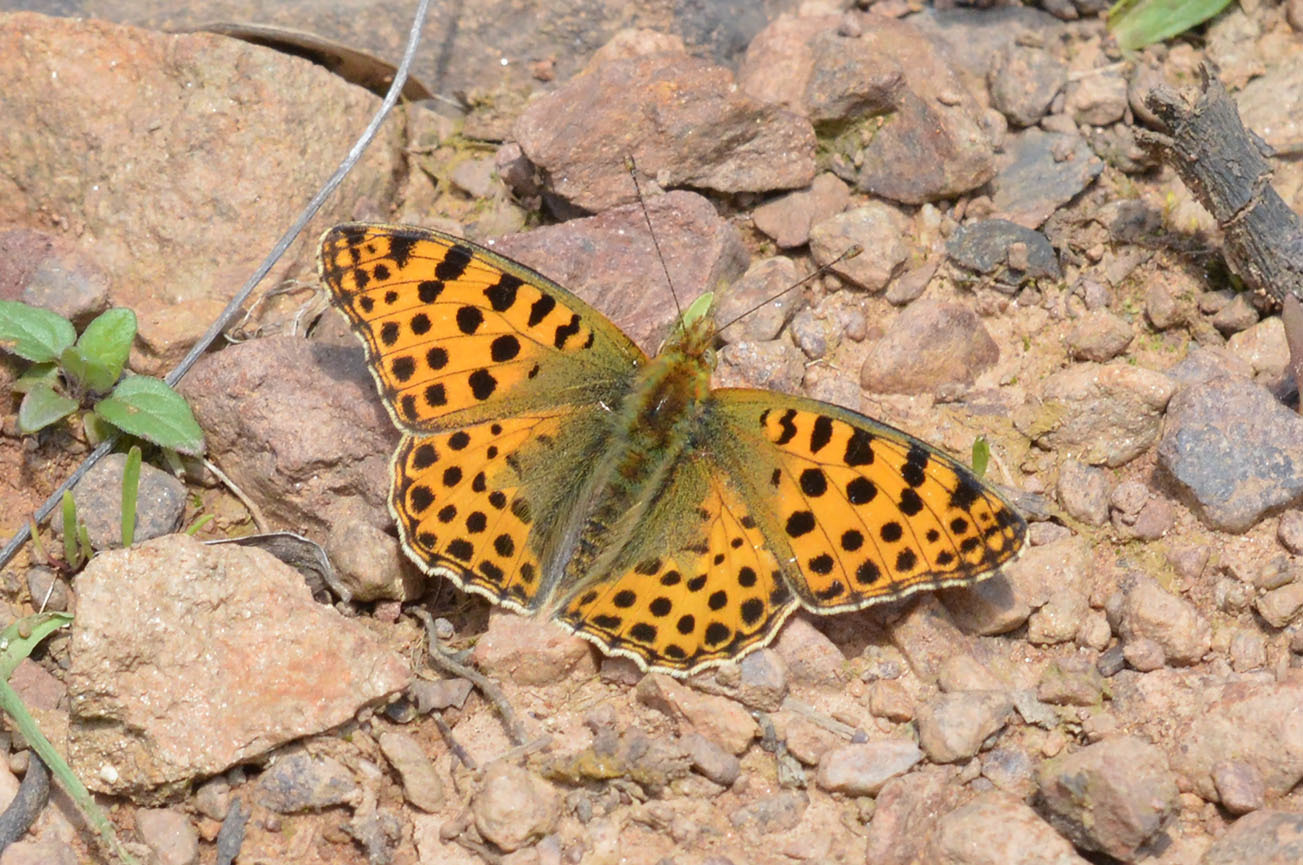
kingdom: Animalia
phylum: Arthropoda
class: Insecta
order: Lepidoptera
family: Nymphalidae
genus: Issoria
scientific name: Issoria lathonia
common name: Queen of spain fritillary
